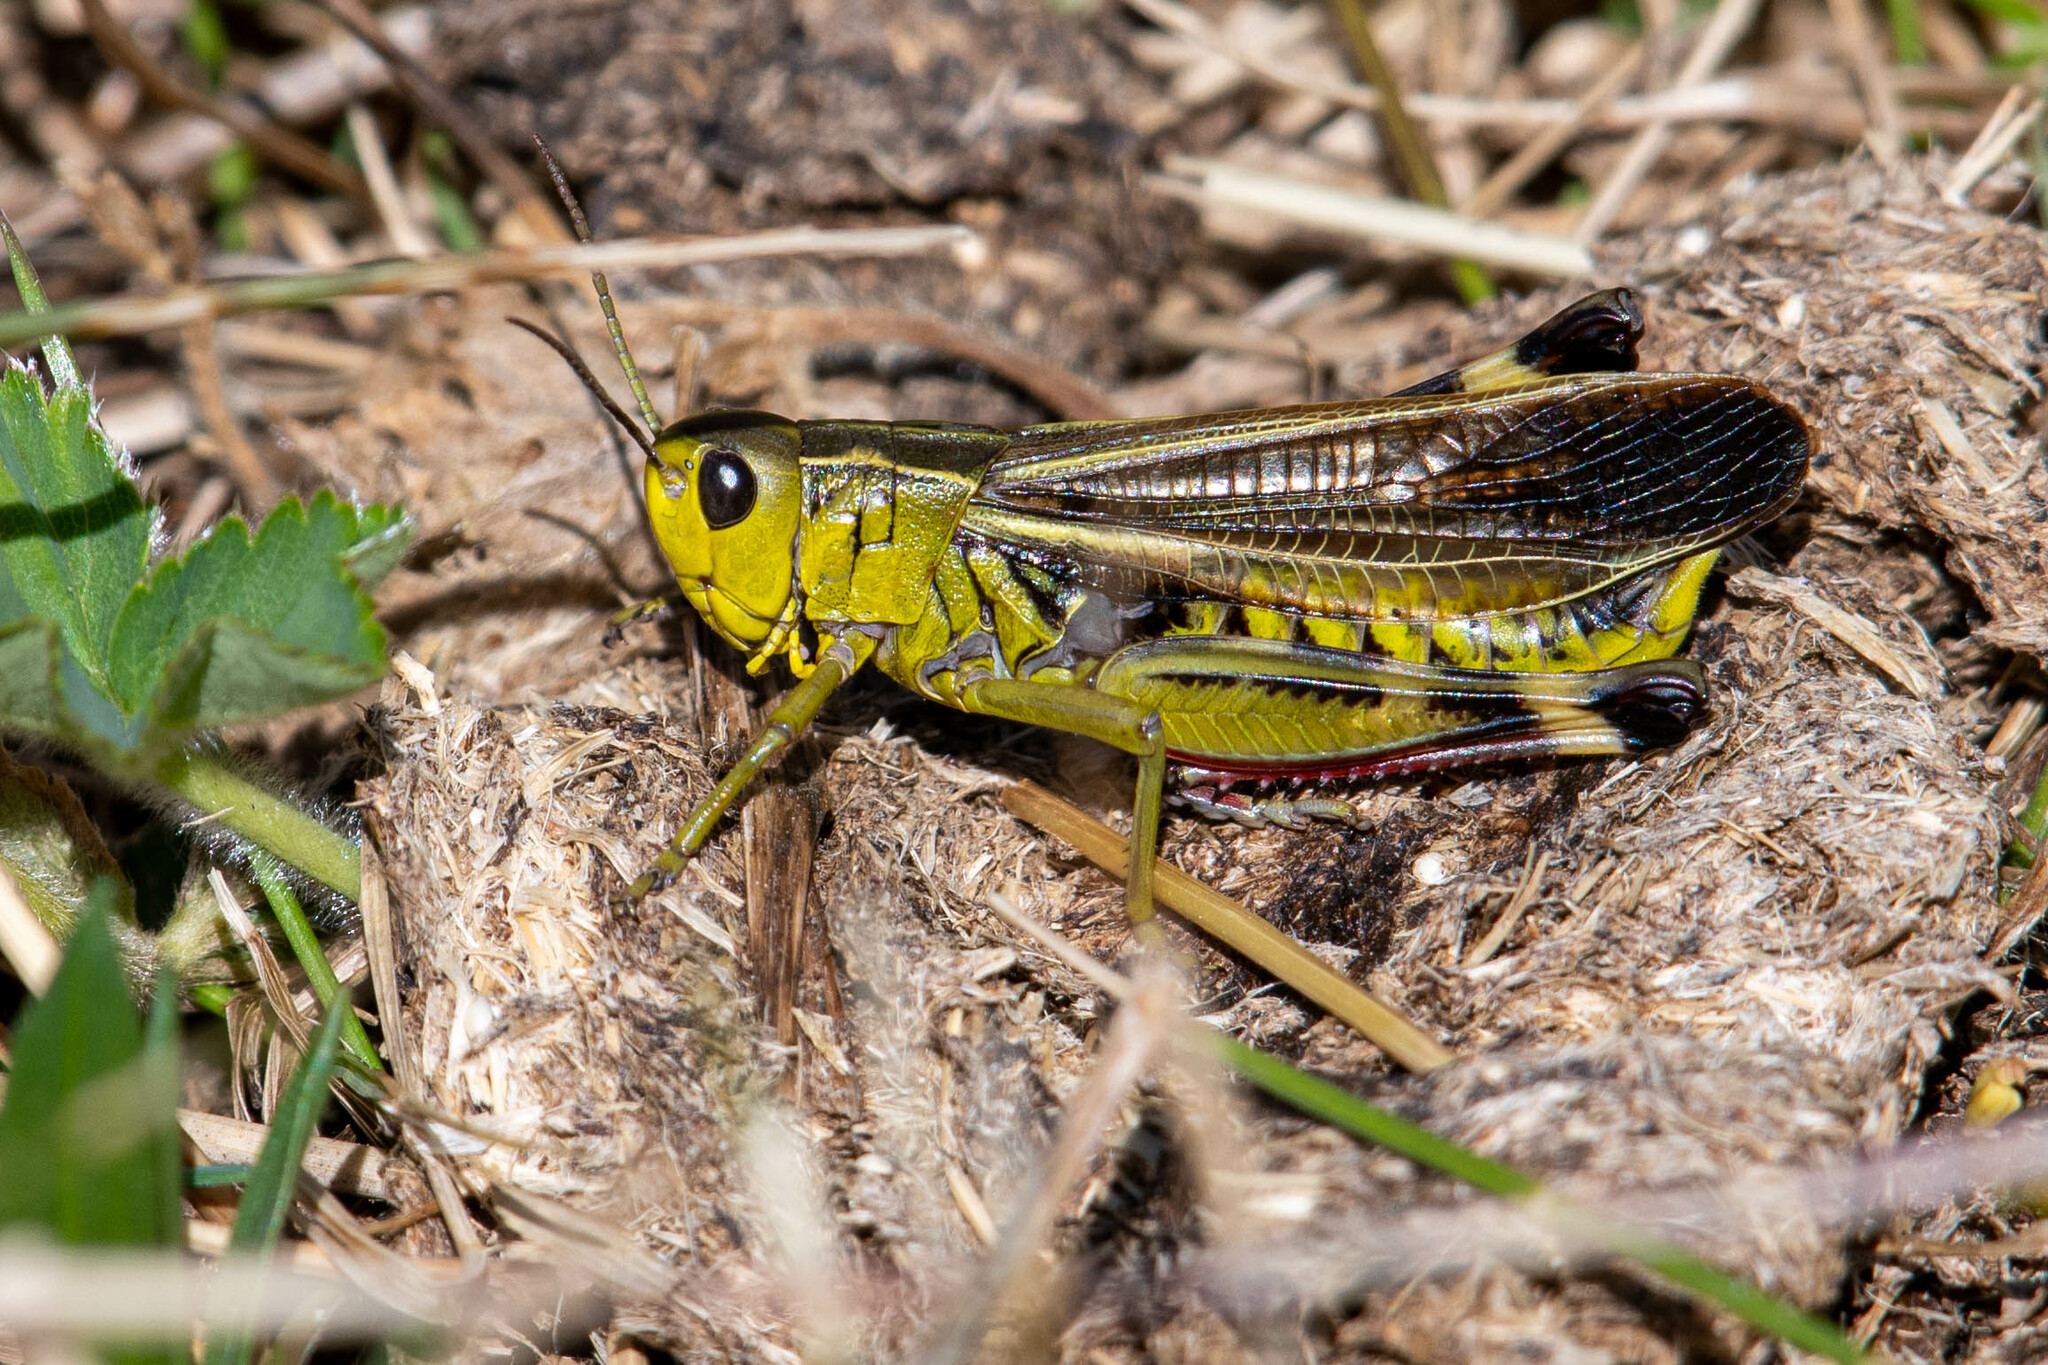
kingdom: Animalia
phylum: Arthropoda
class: Insecta
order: Orthoptera
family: Acrididae
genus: Arcyptera
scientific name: Arcyptera fusca
